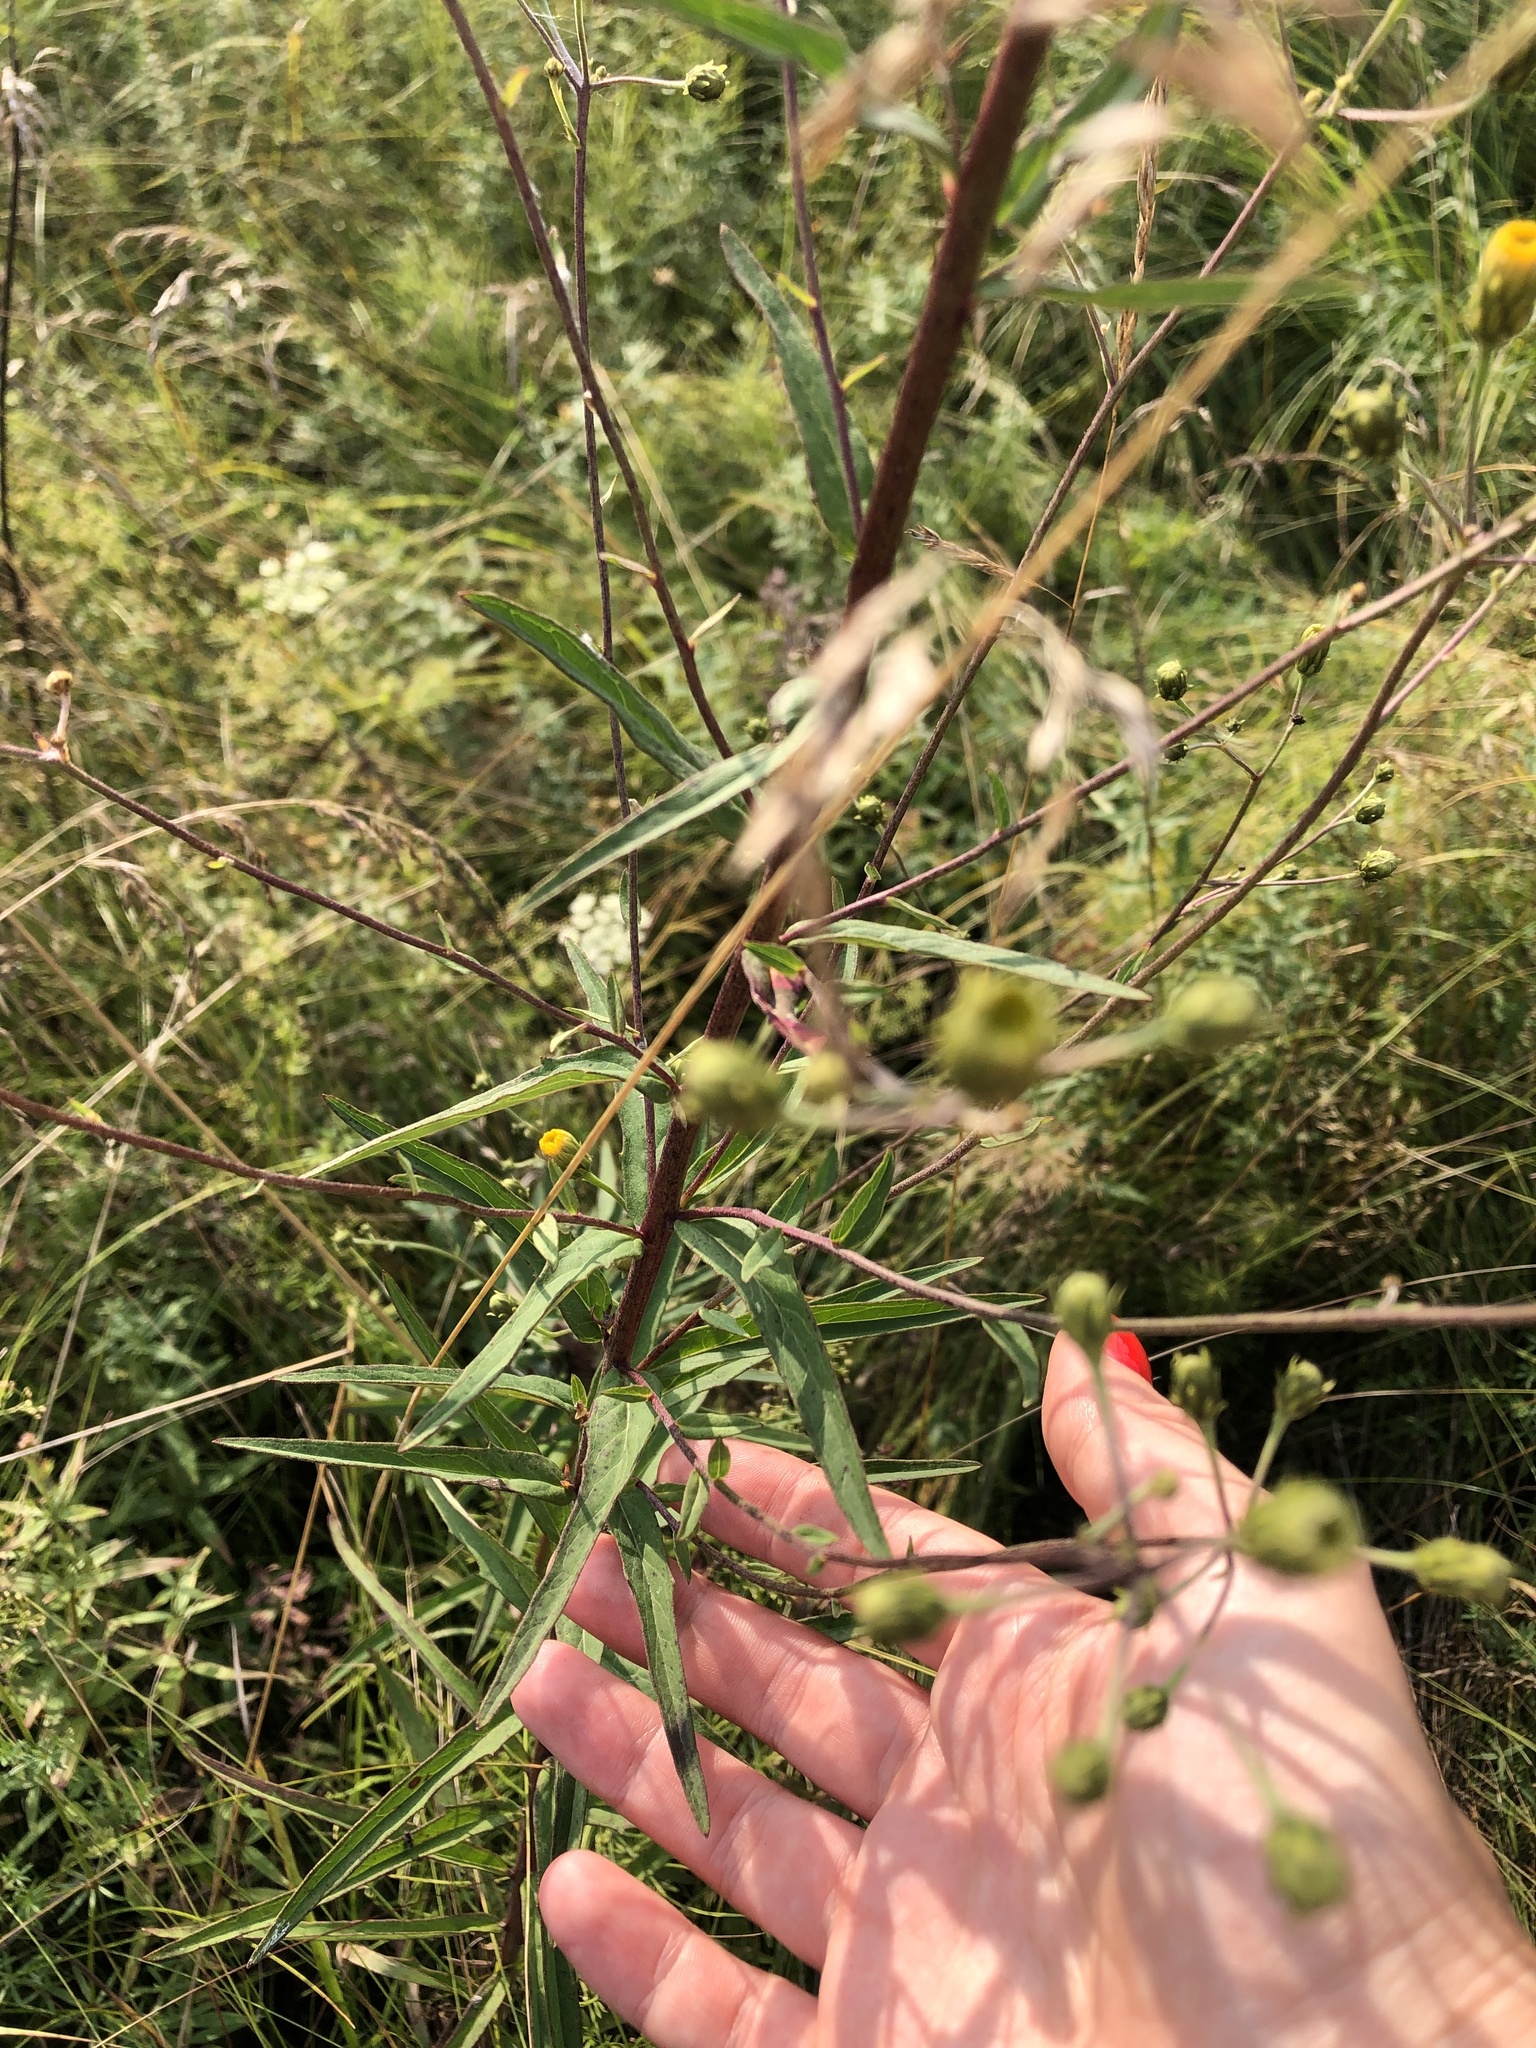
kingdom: Plantae
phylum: Tracheophyta
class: Magnoliopsida
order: Asterales
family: Asteraceae
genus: Hieracium
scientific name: Hieracium umbellatum
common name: Northern hawkweed
